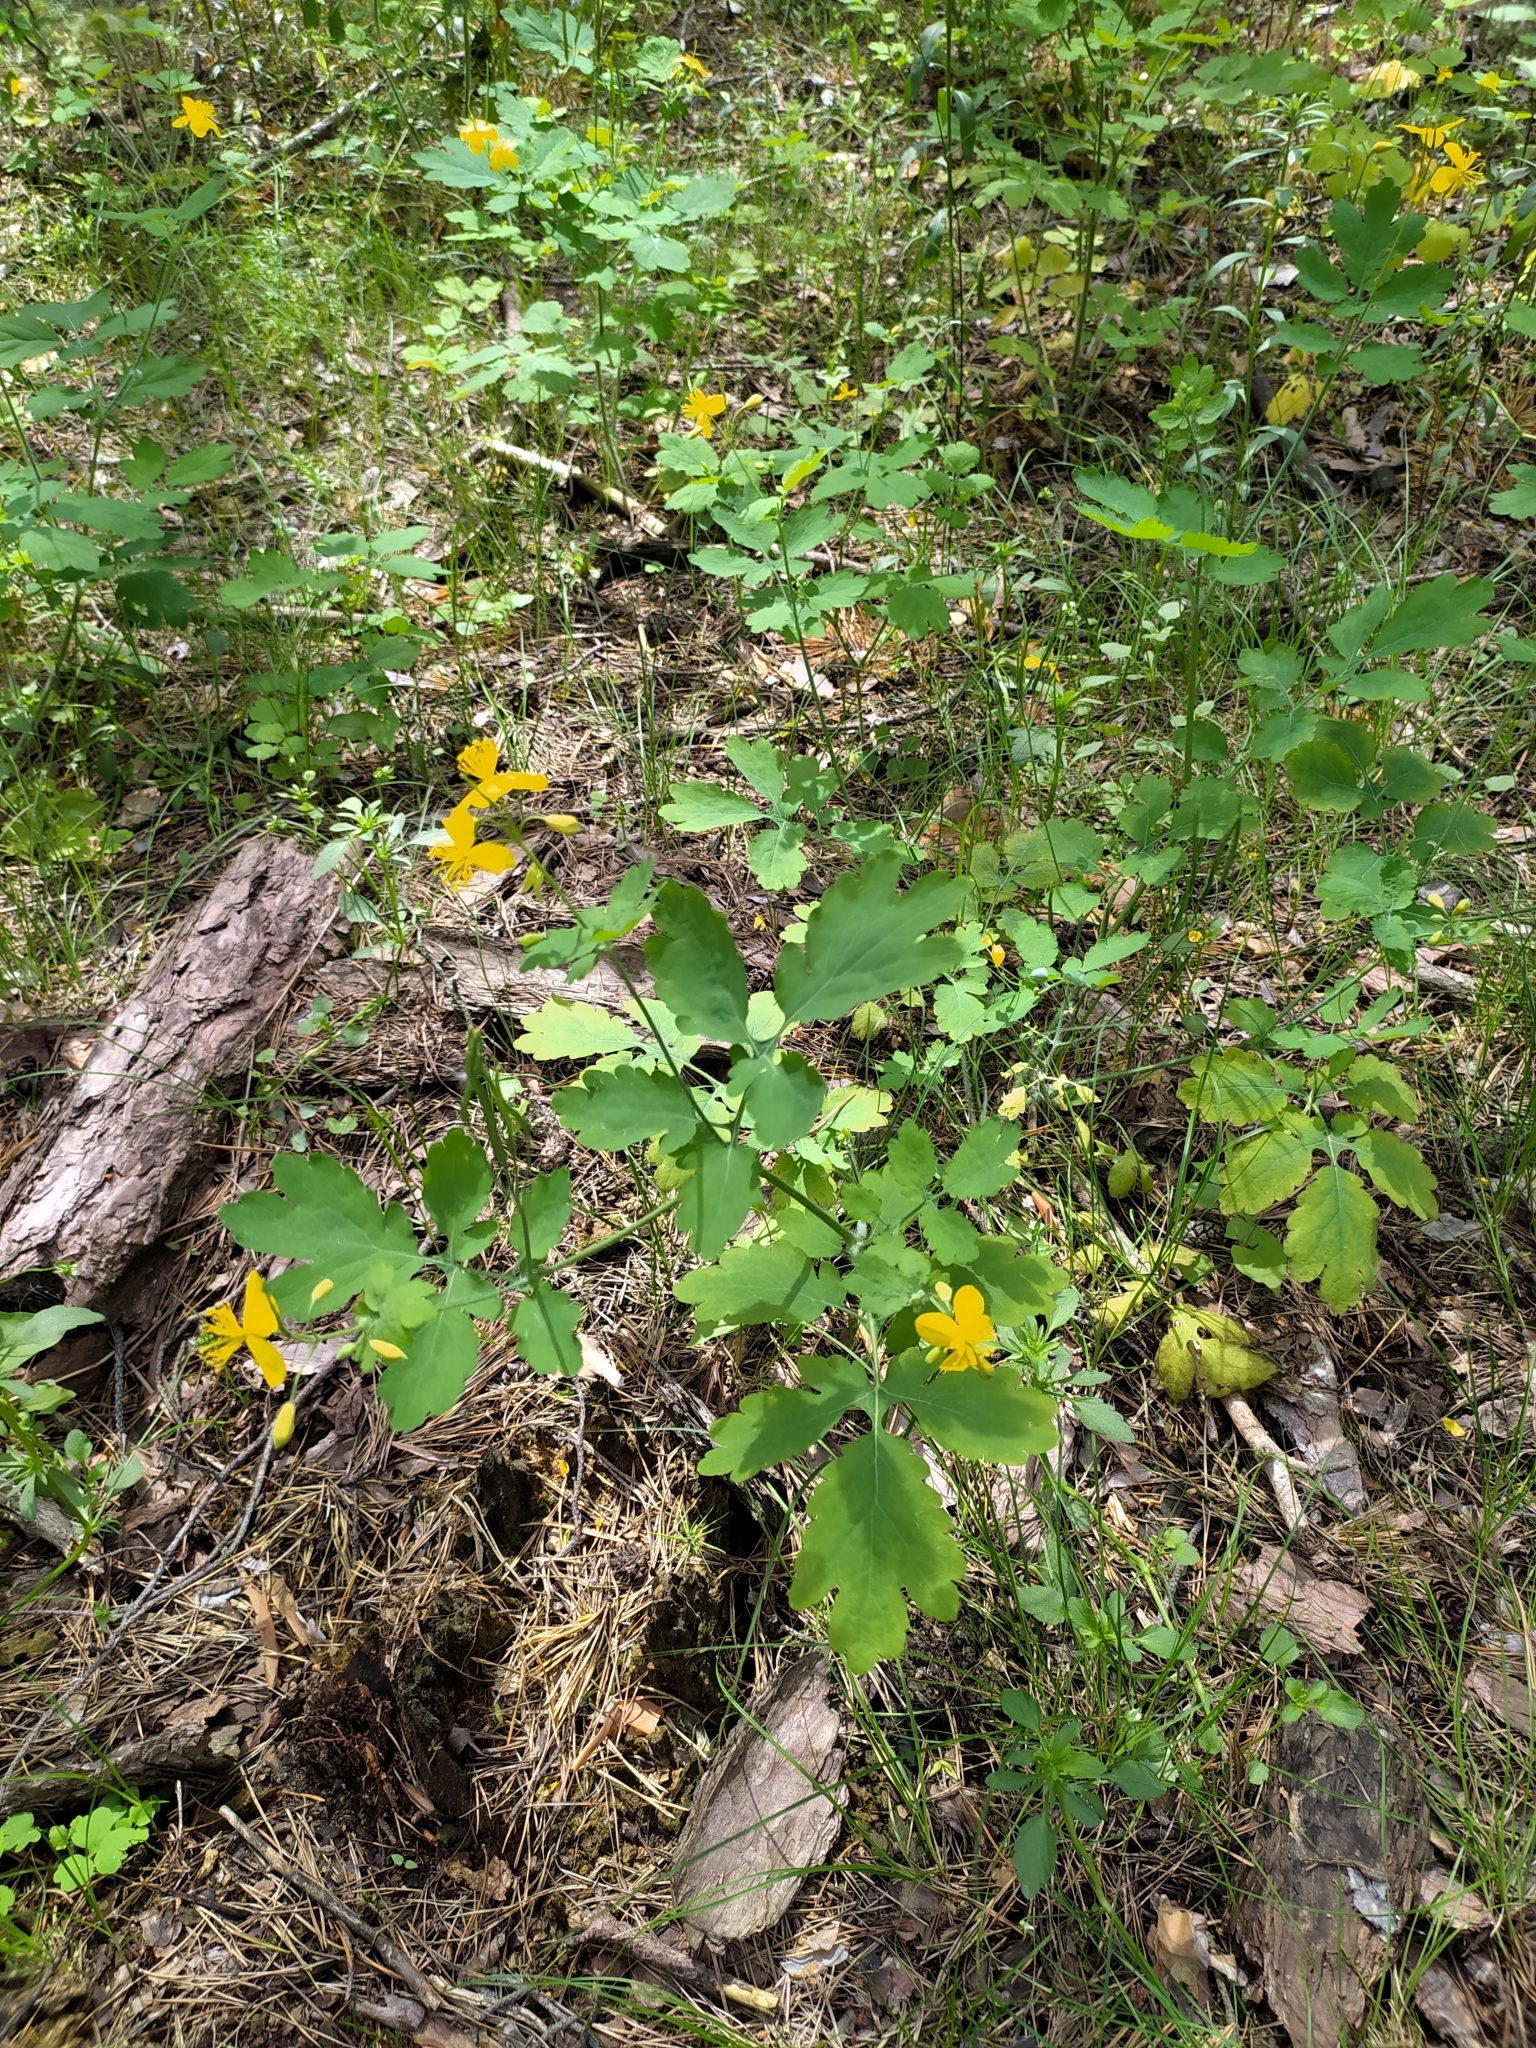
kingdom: Plantae
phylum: Tracheophyta
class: Magnoliopsida
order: Ranunculales
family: Papaveraceae
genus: Chelidonium
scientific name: Chelidonium majus
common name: Greater celandine
